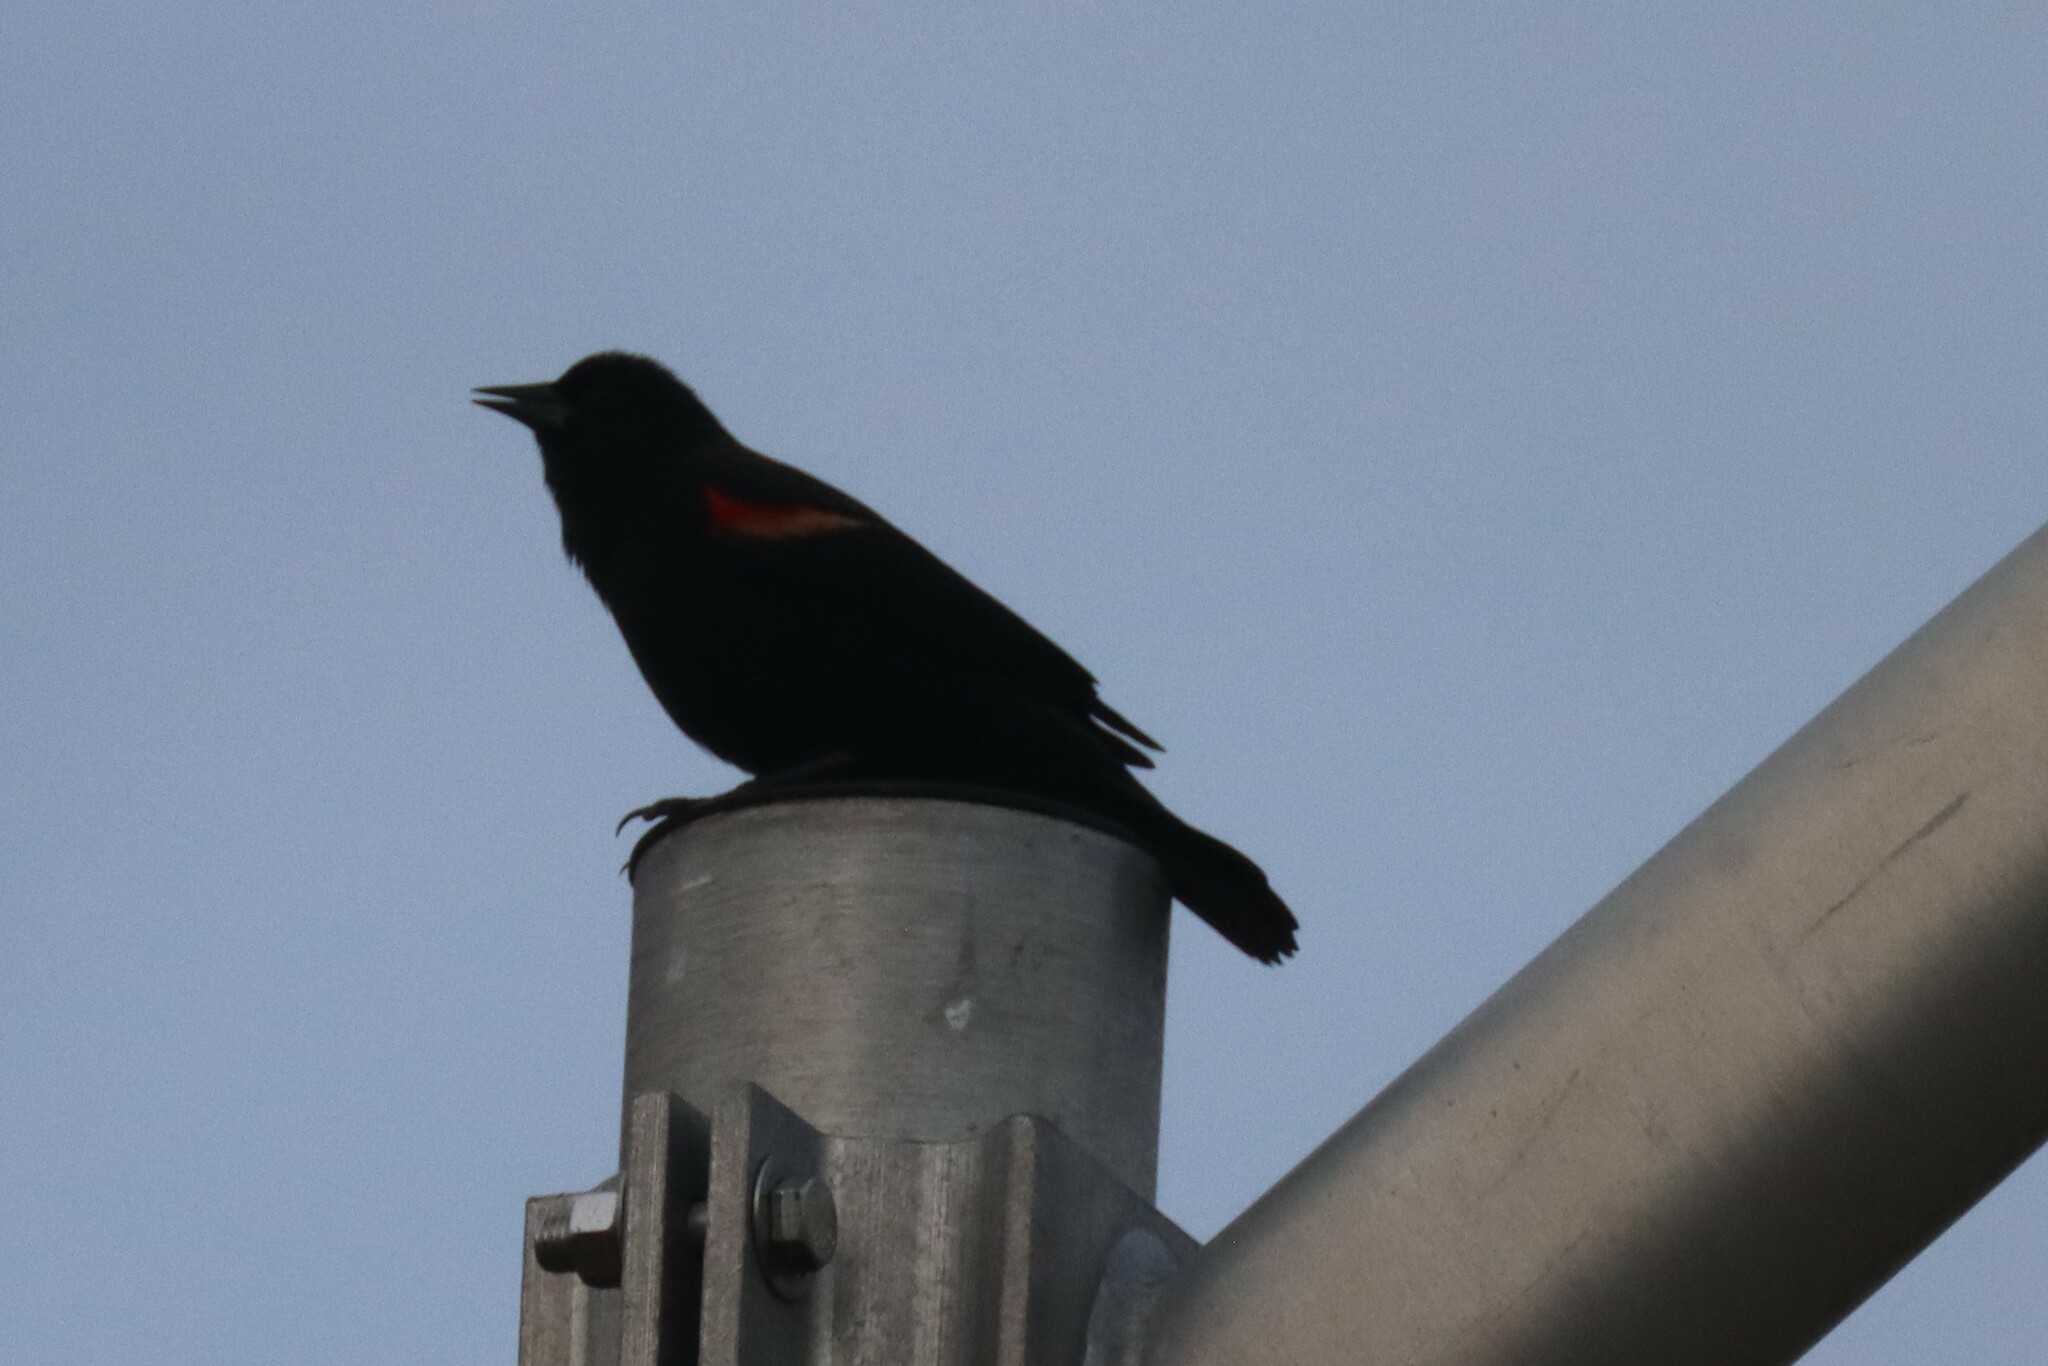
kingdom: Animalia
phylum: Chordata
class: Aves
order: Passeriformes
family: Icteridae
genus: Agelaius
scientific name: Agelaius phoeniceus
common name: Red-winged blackbird
